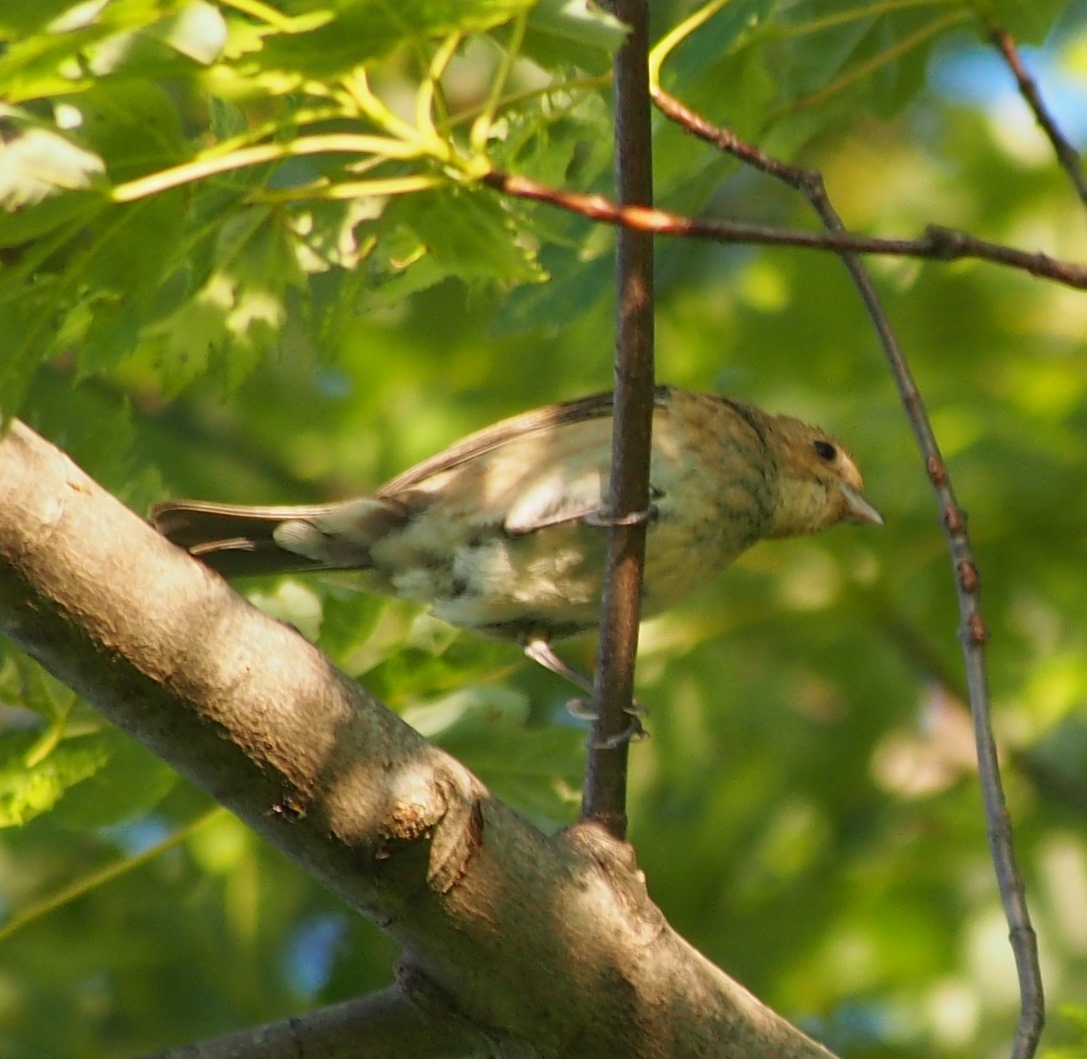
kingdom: Animalia
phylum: Chordata
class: Aves
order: Passeriformes
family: Cardinalidae
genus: Passerina
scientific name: Passerina cyanea
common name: Indigo bunting
